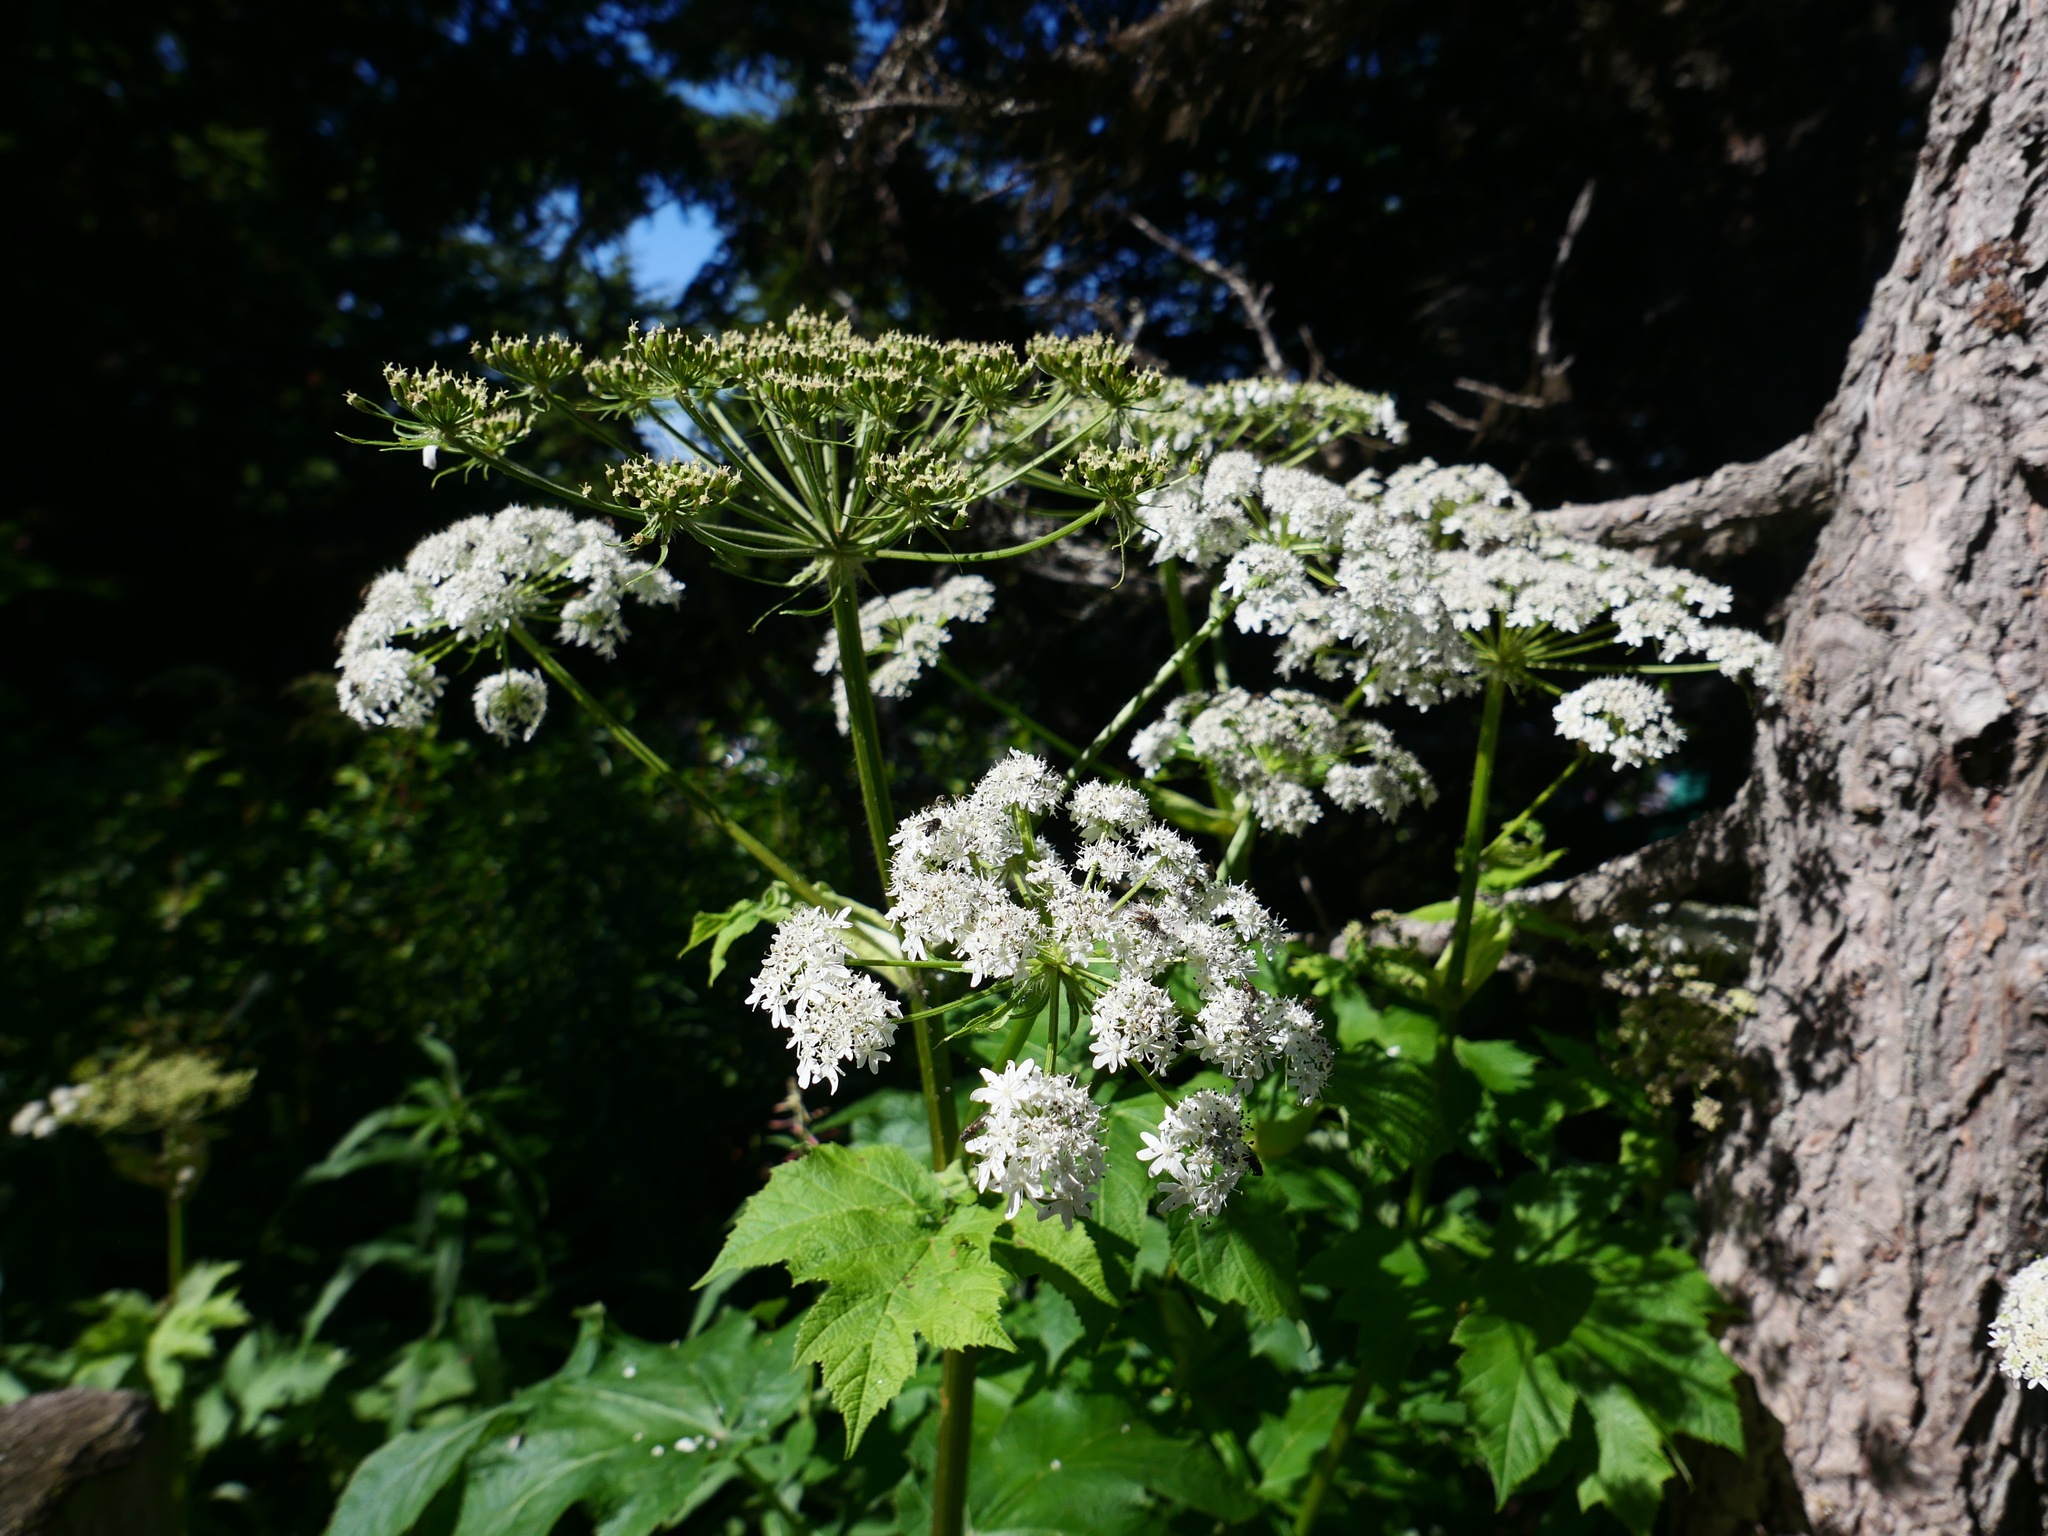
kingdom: Plantae
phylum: Tracheophyta
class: Magnoliopsida
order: Apiales
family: Apiaceae
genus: Heracleum
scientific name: Heracleum maximum
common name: American cow parsnip
